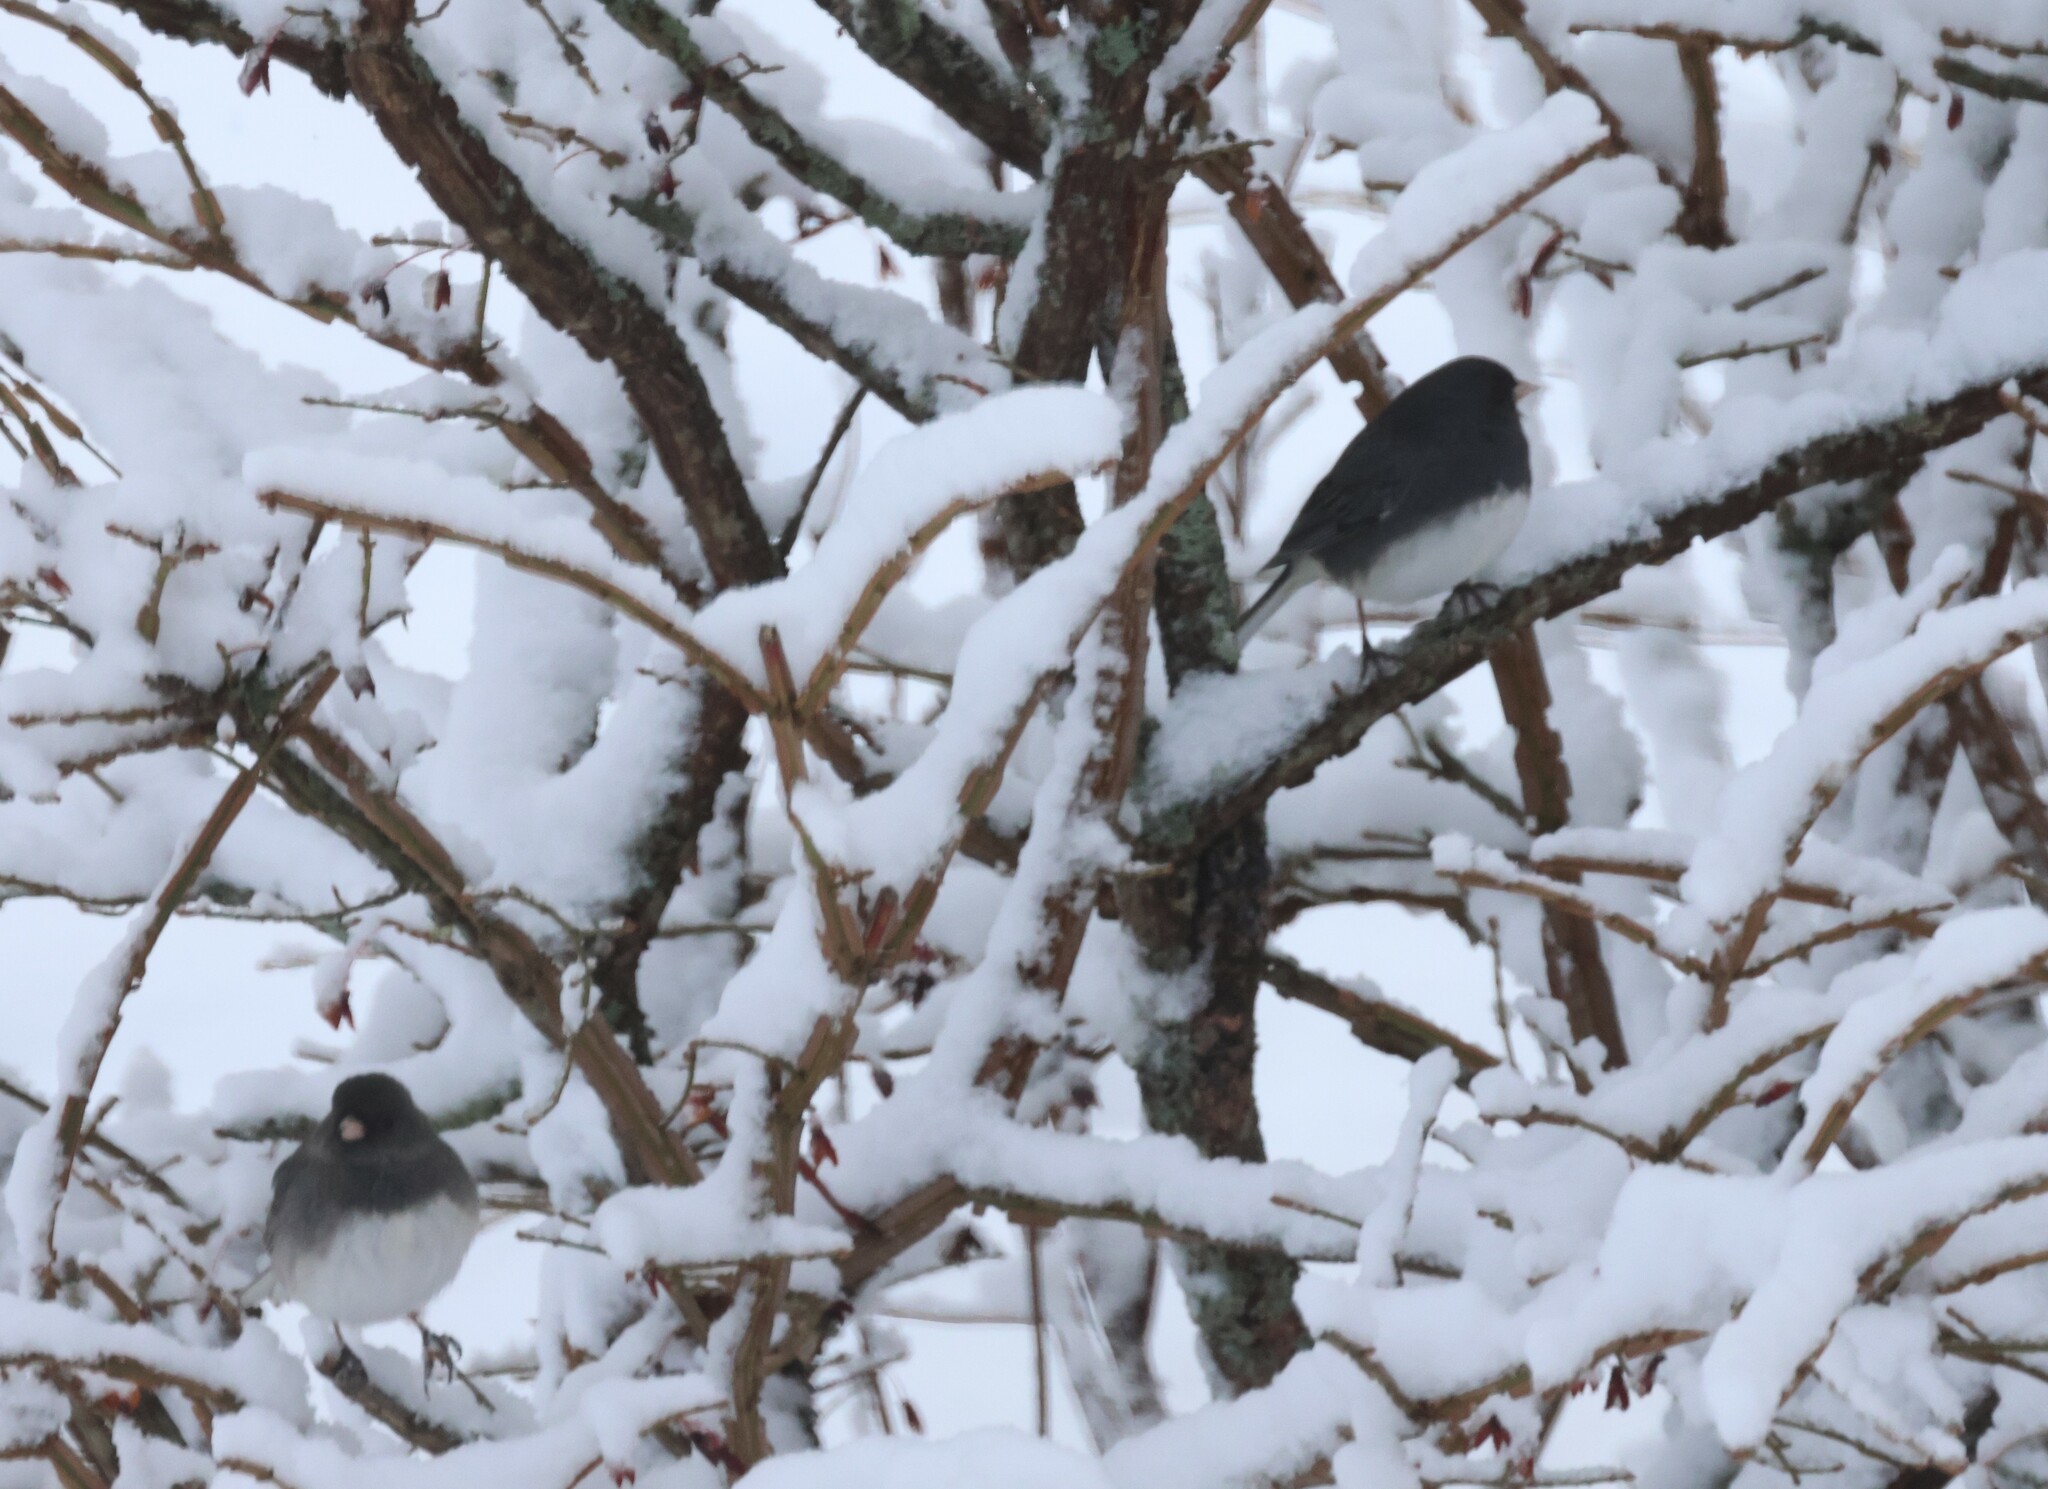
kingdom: Animalia
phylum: Chordata
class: Aves
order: Passeriformes
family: Passerellidae
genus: Junco
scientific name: Junco hyemalis
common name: Dark-eyed junco
